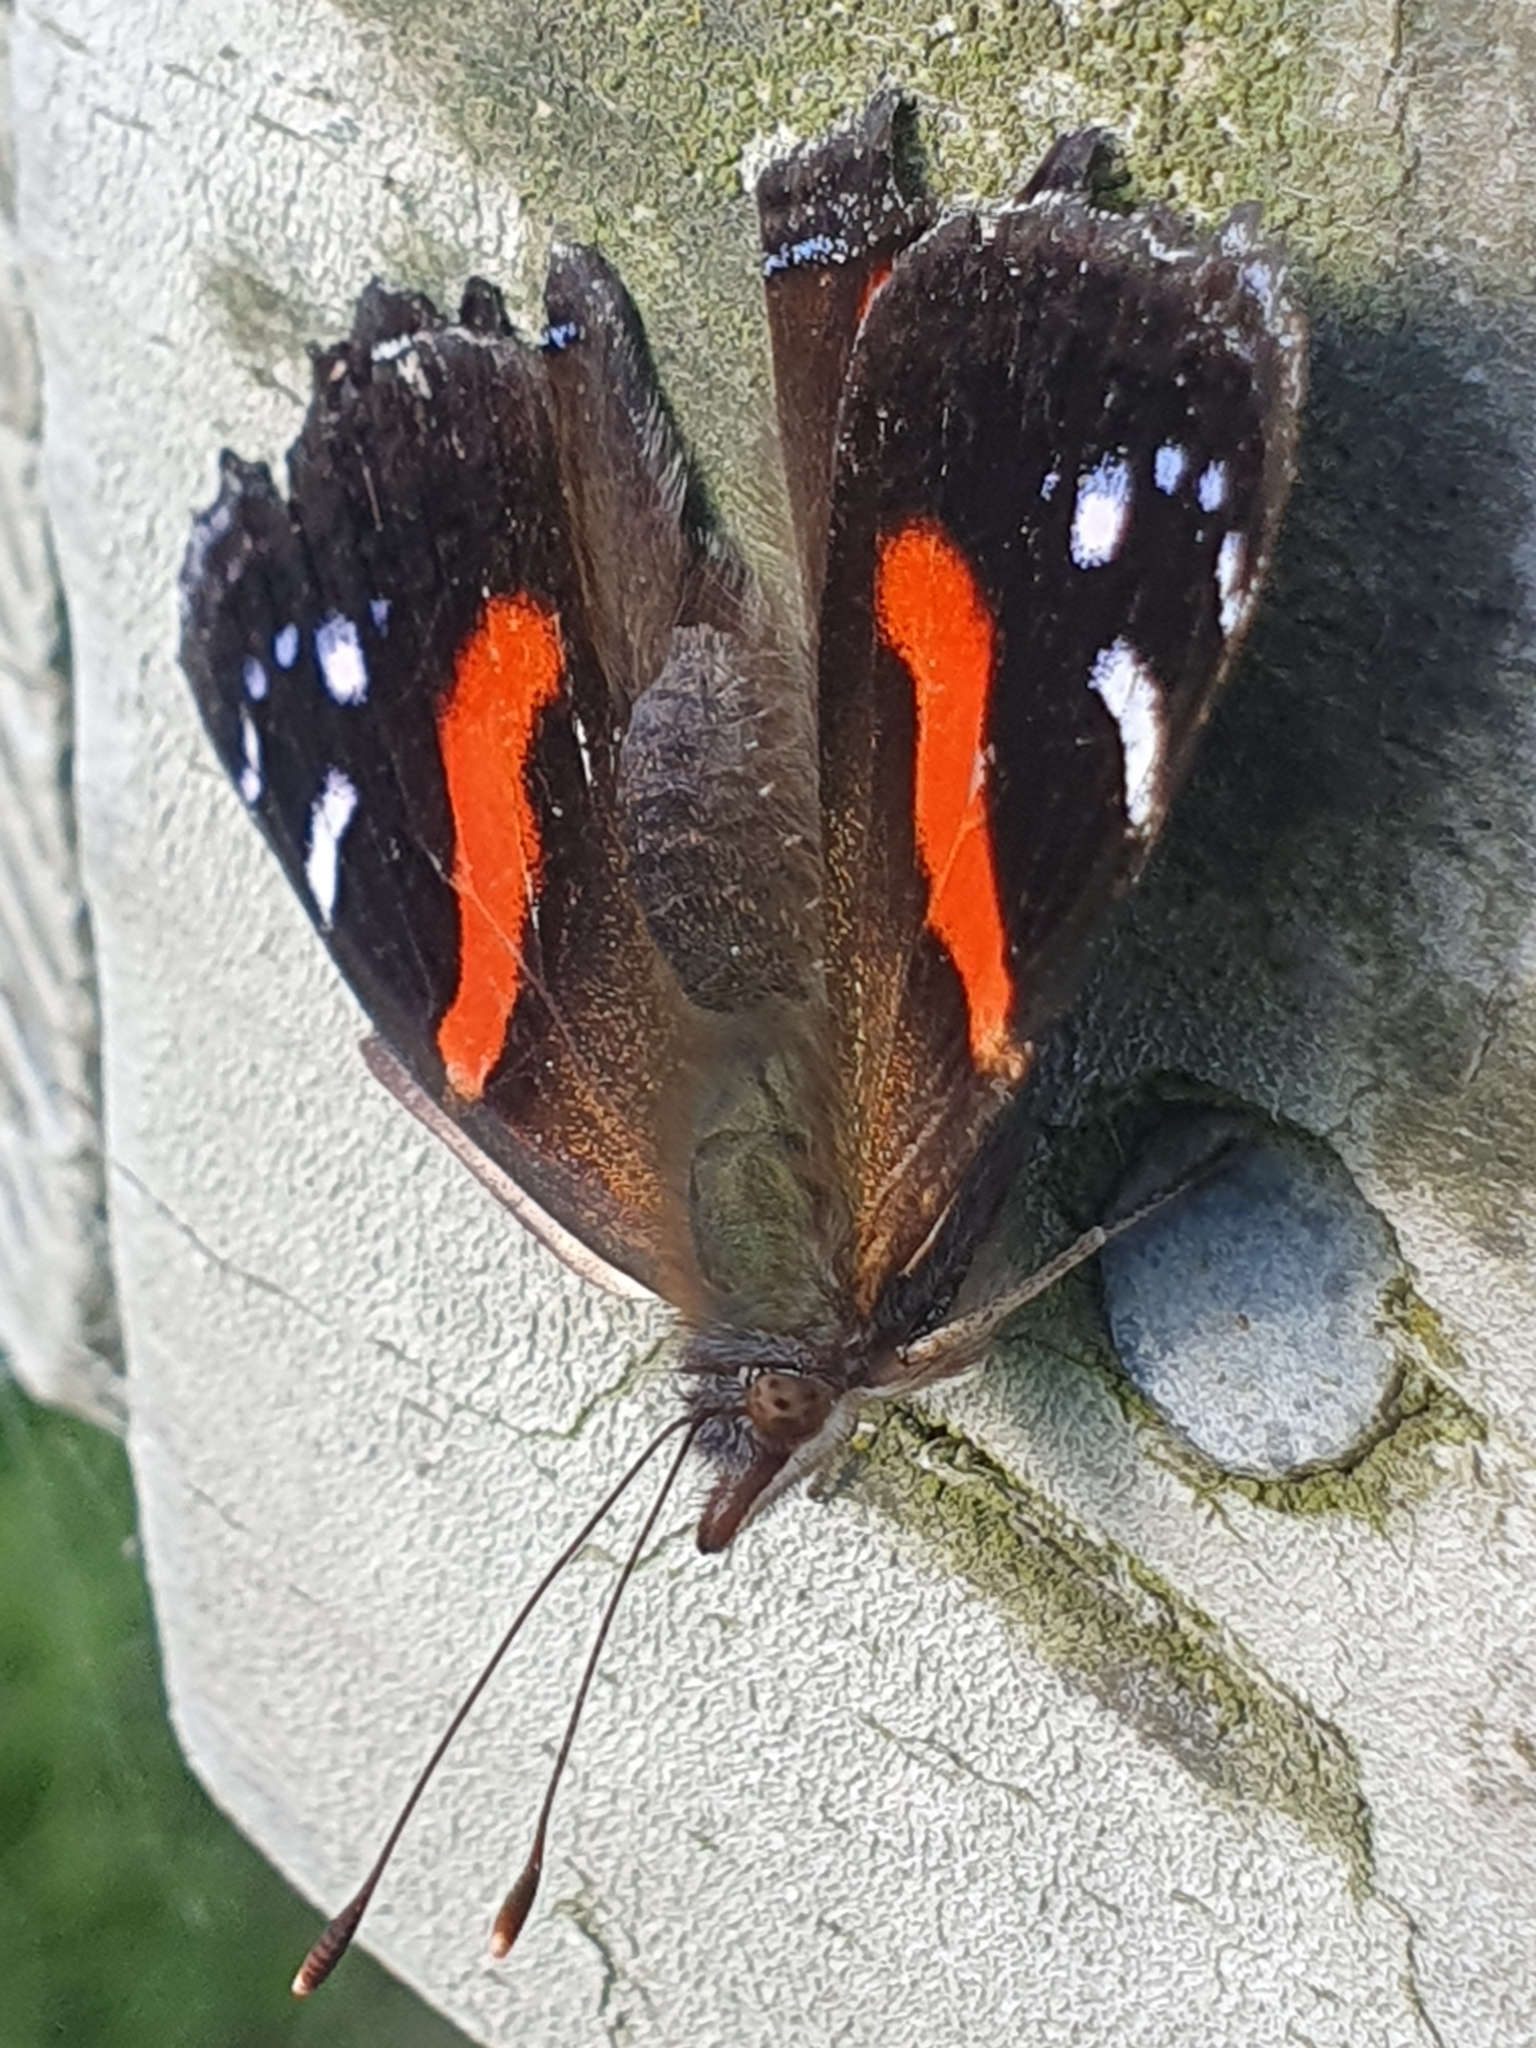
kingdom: Animalia
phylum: Arthropoda
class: Insecta
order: Lepidoptera
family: Nymphalidae
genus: Vanessa
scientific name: Vanessa gonerilla
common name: New zealand red admiral
